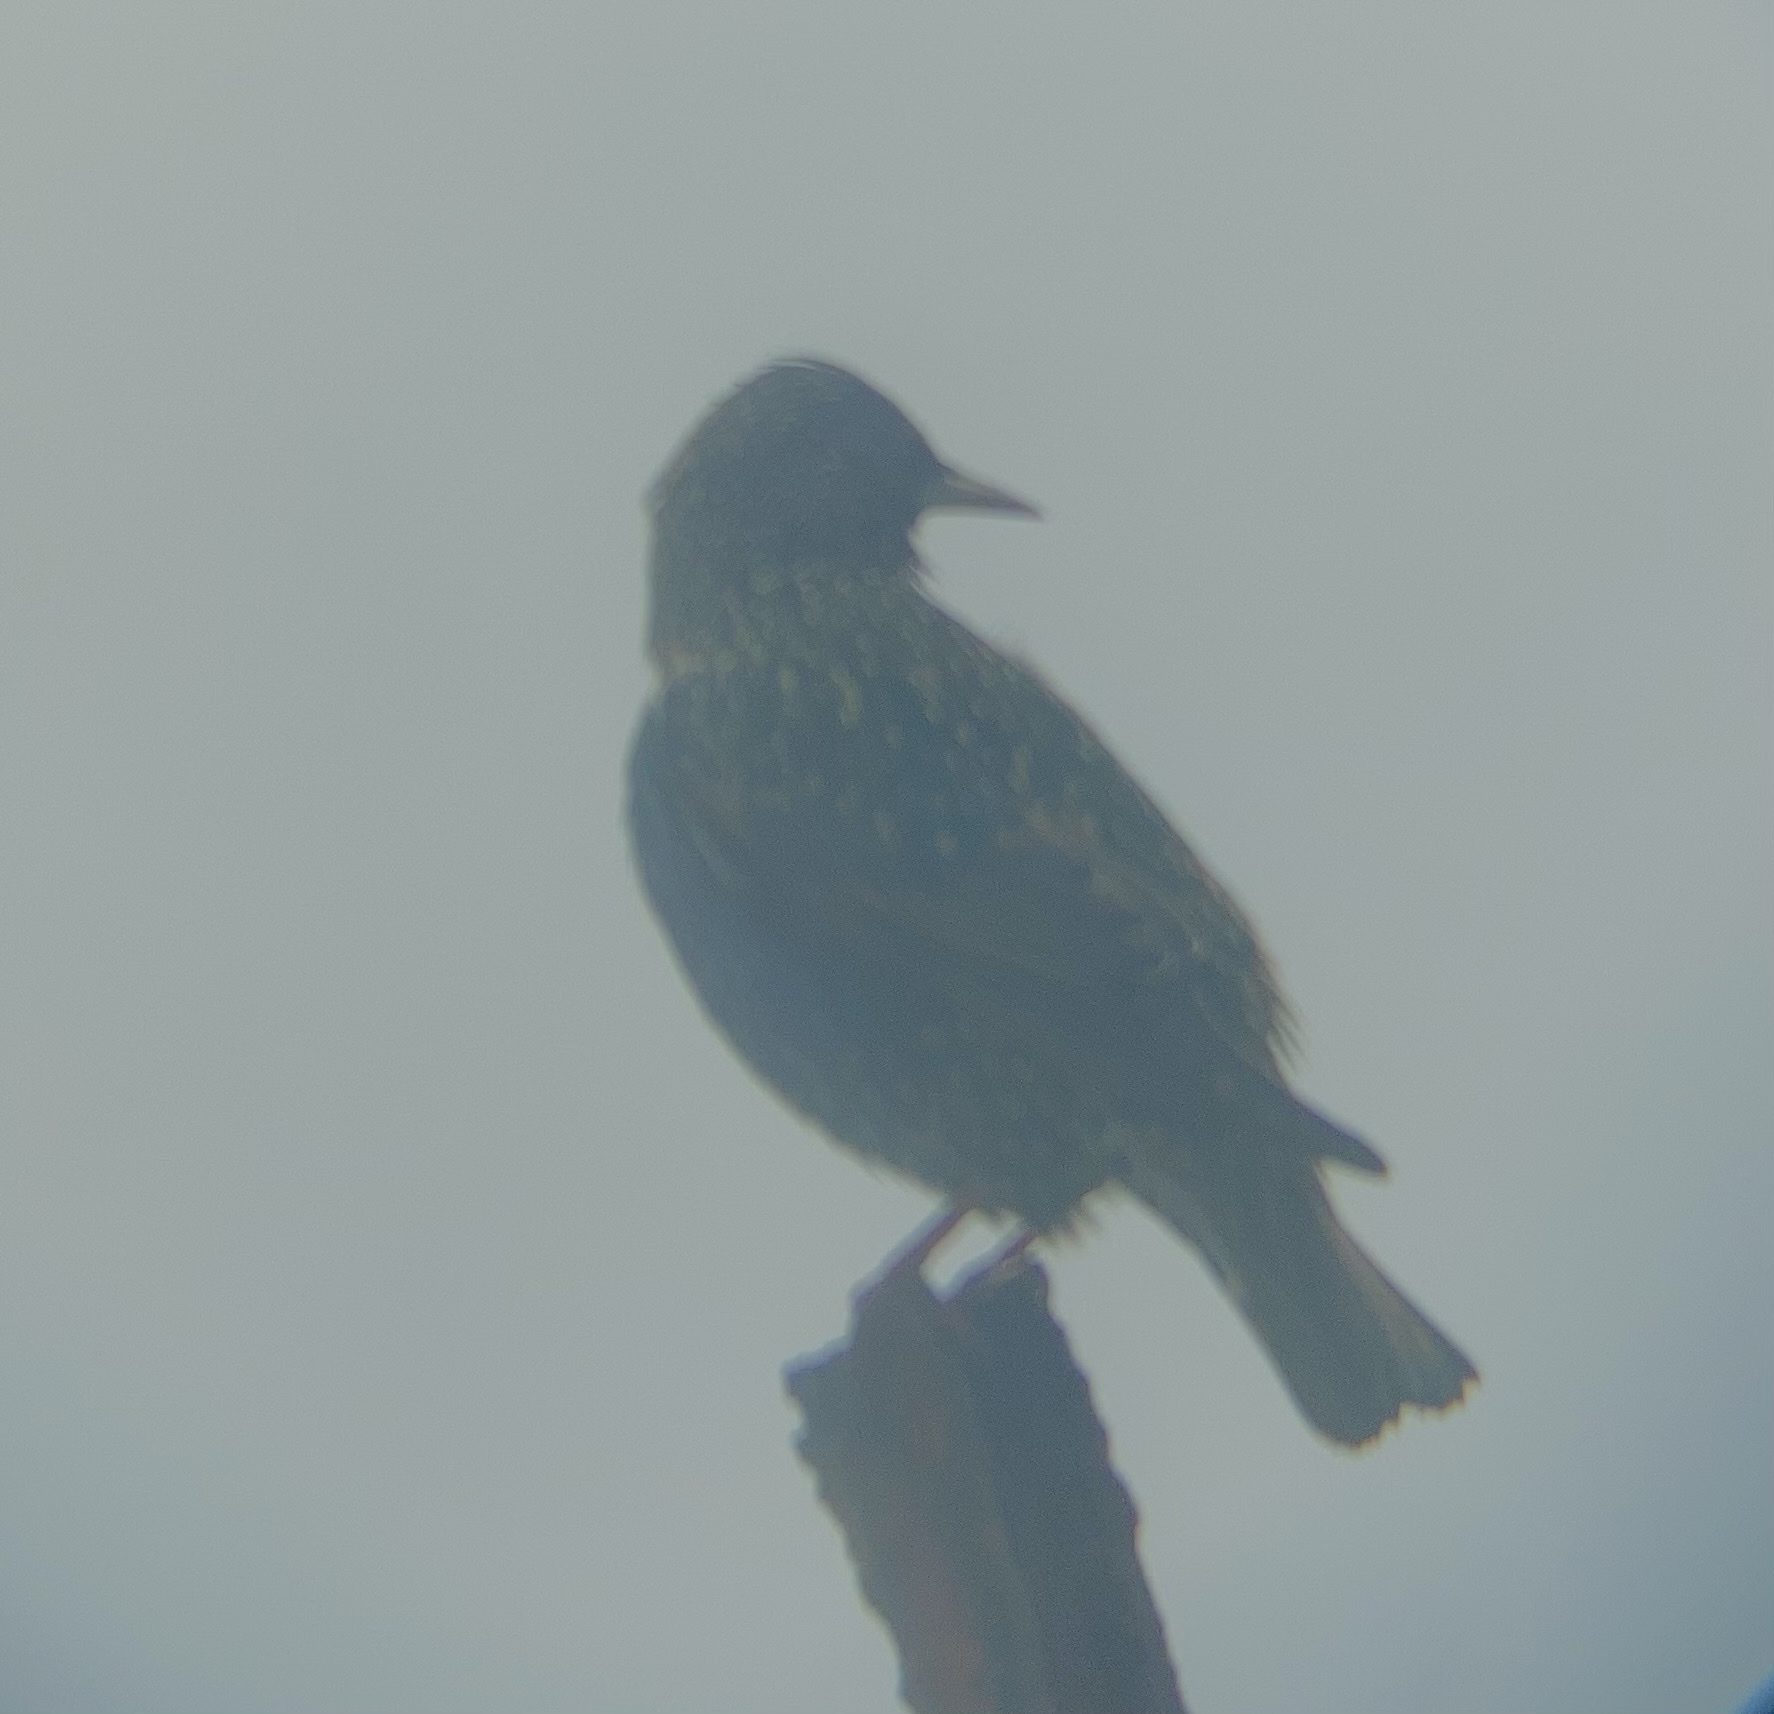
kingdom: Animalia
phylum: Chordata
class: Aves
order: Passeriformes
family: Sturnidae
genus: Sturnus
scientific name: Sturnus vulgaris
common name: Common starling
